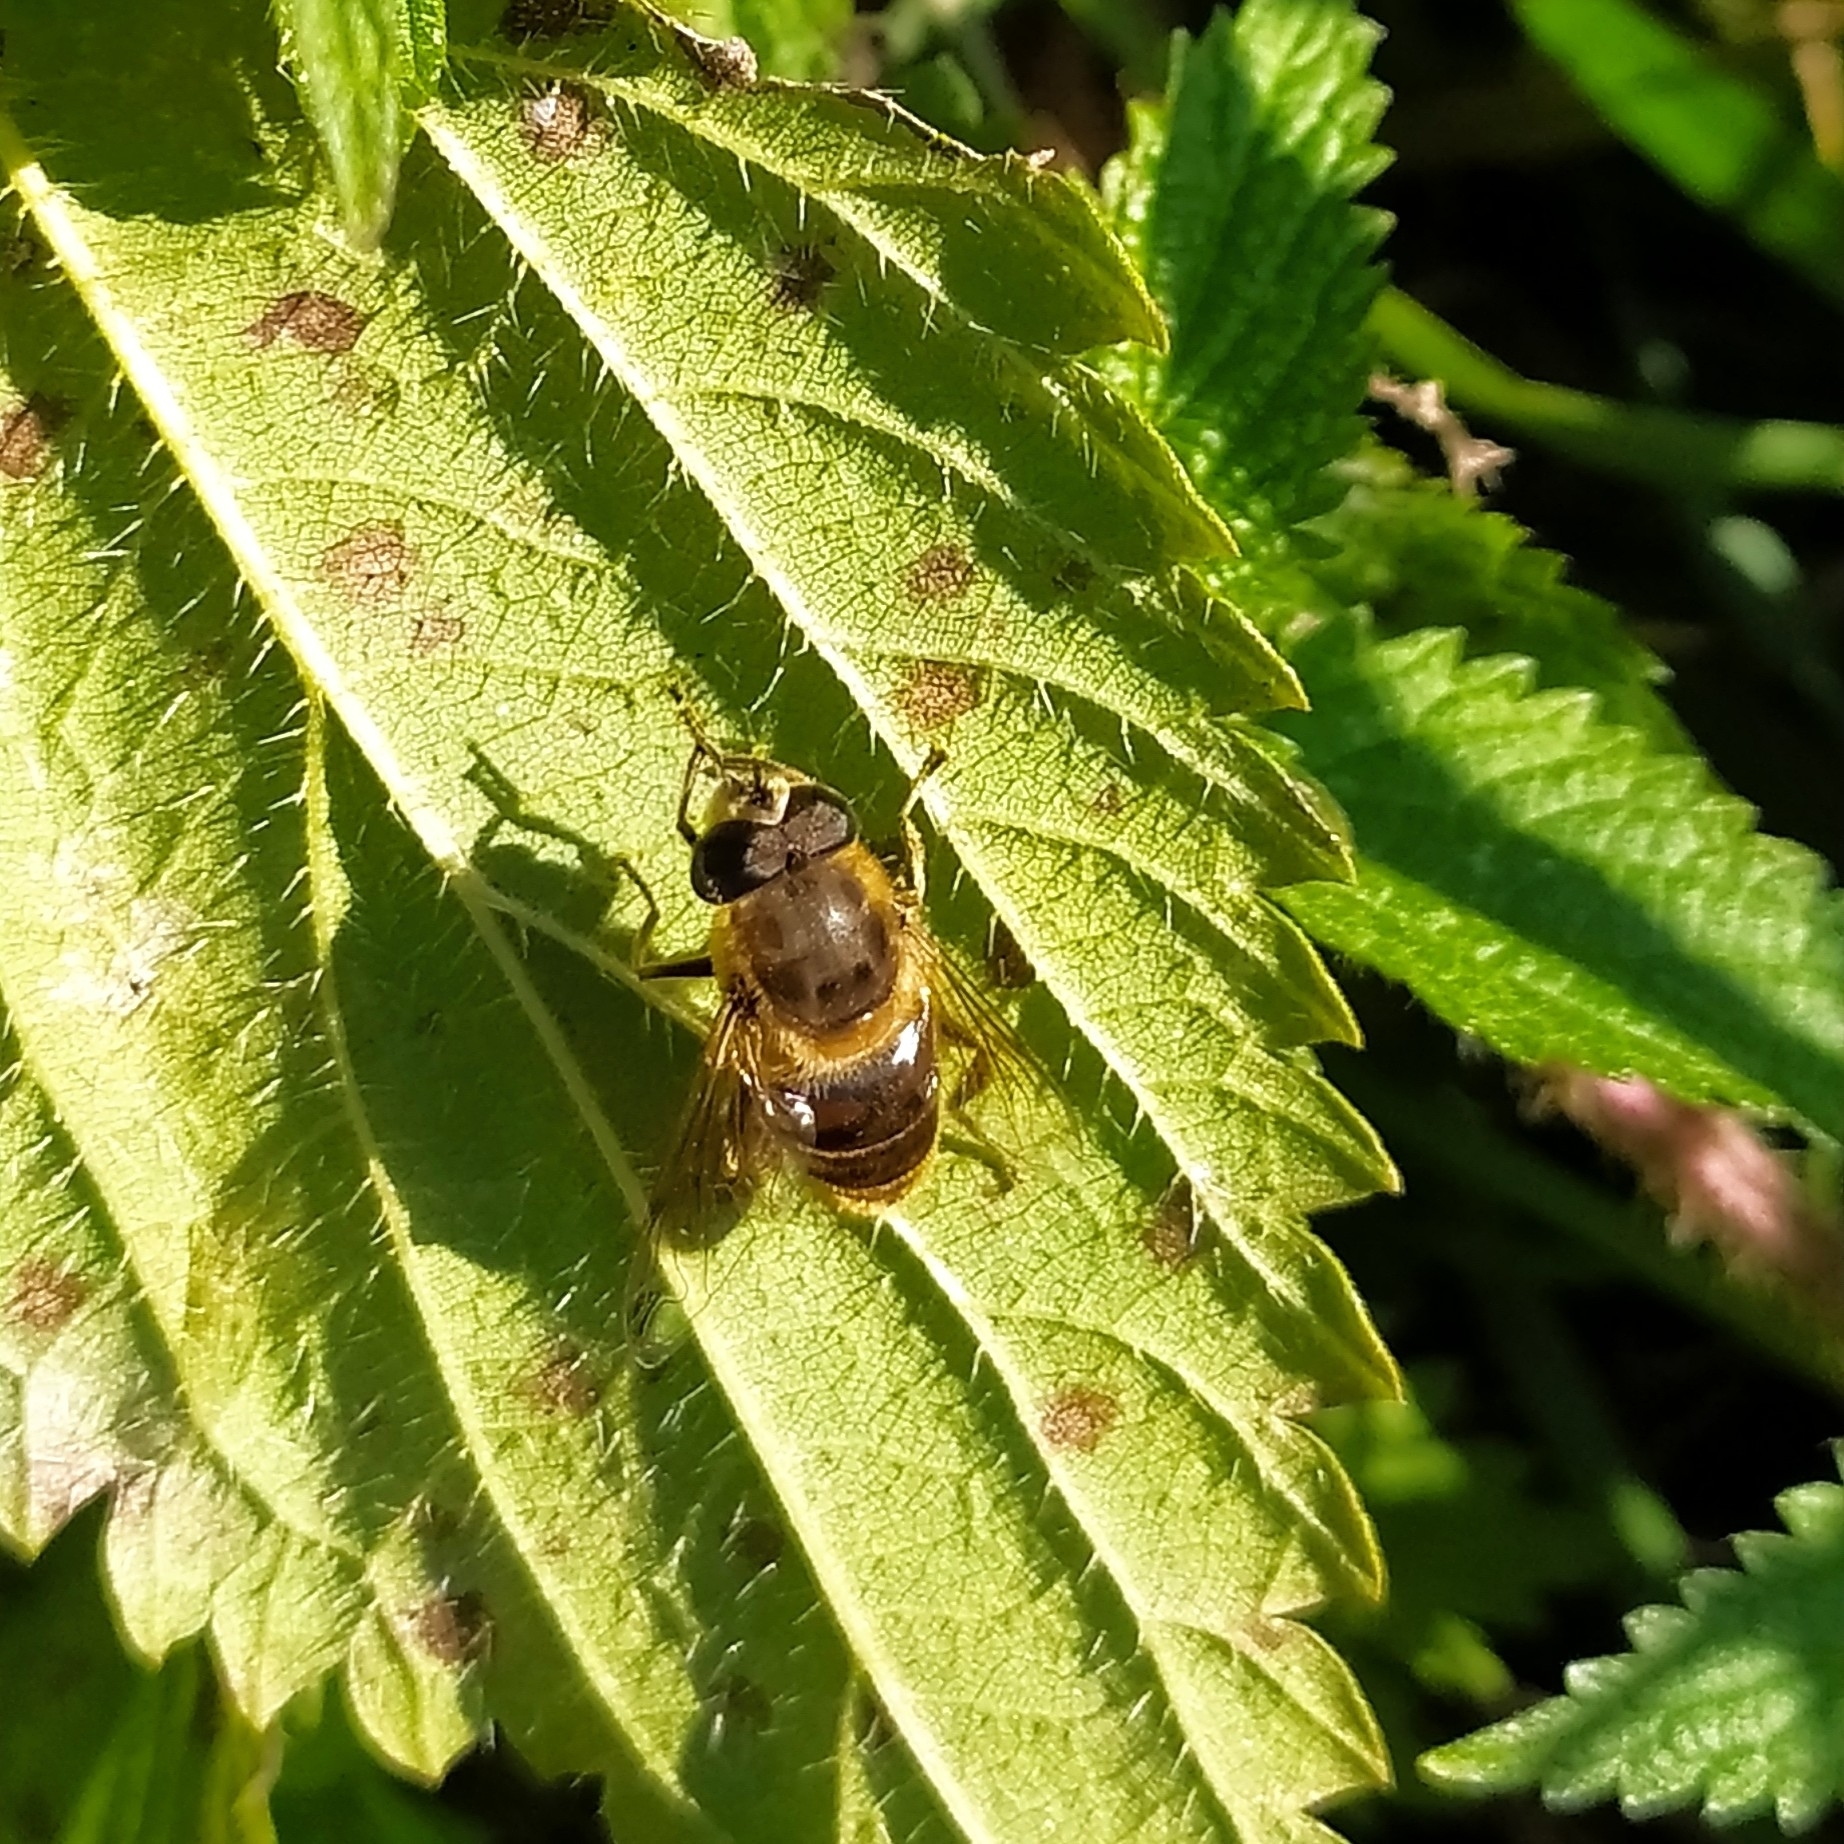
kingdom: Animalia
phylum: Arthropoda
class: Insecta
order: Diptera
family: Syrphidae
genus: Eristalis
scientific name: Eristalis tenax
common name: Drone fly
